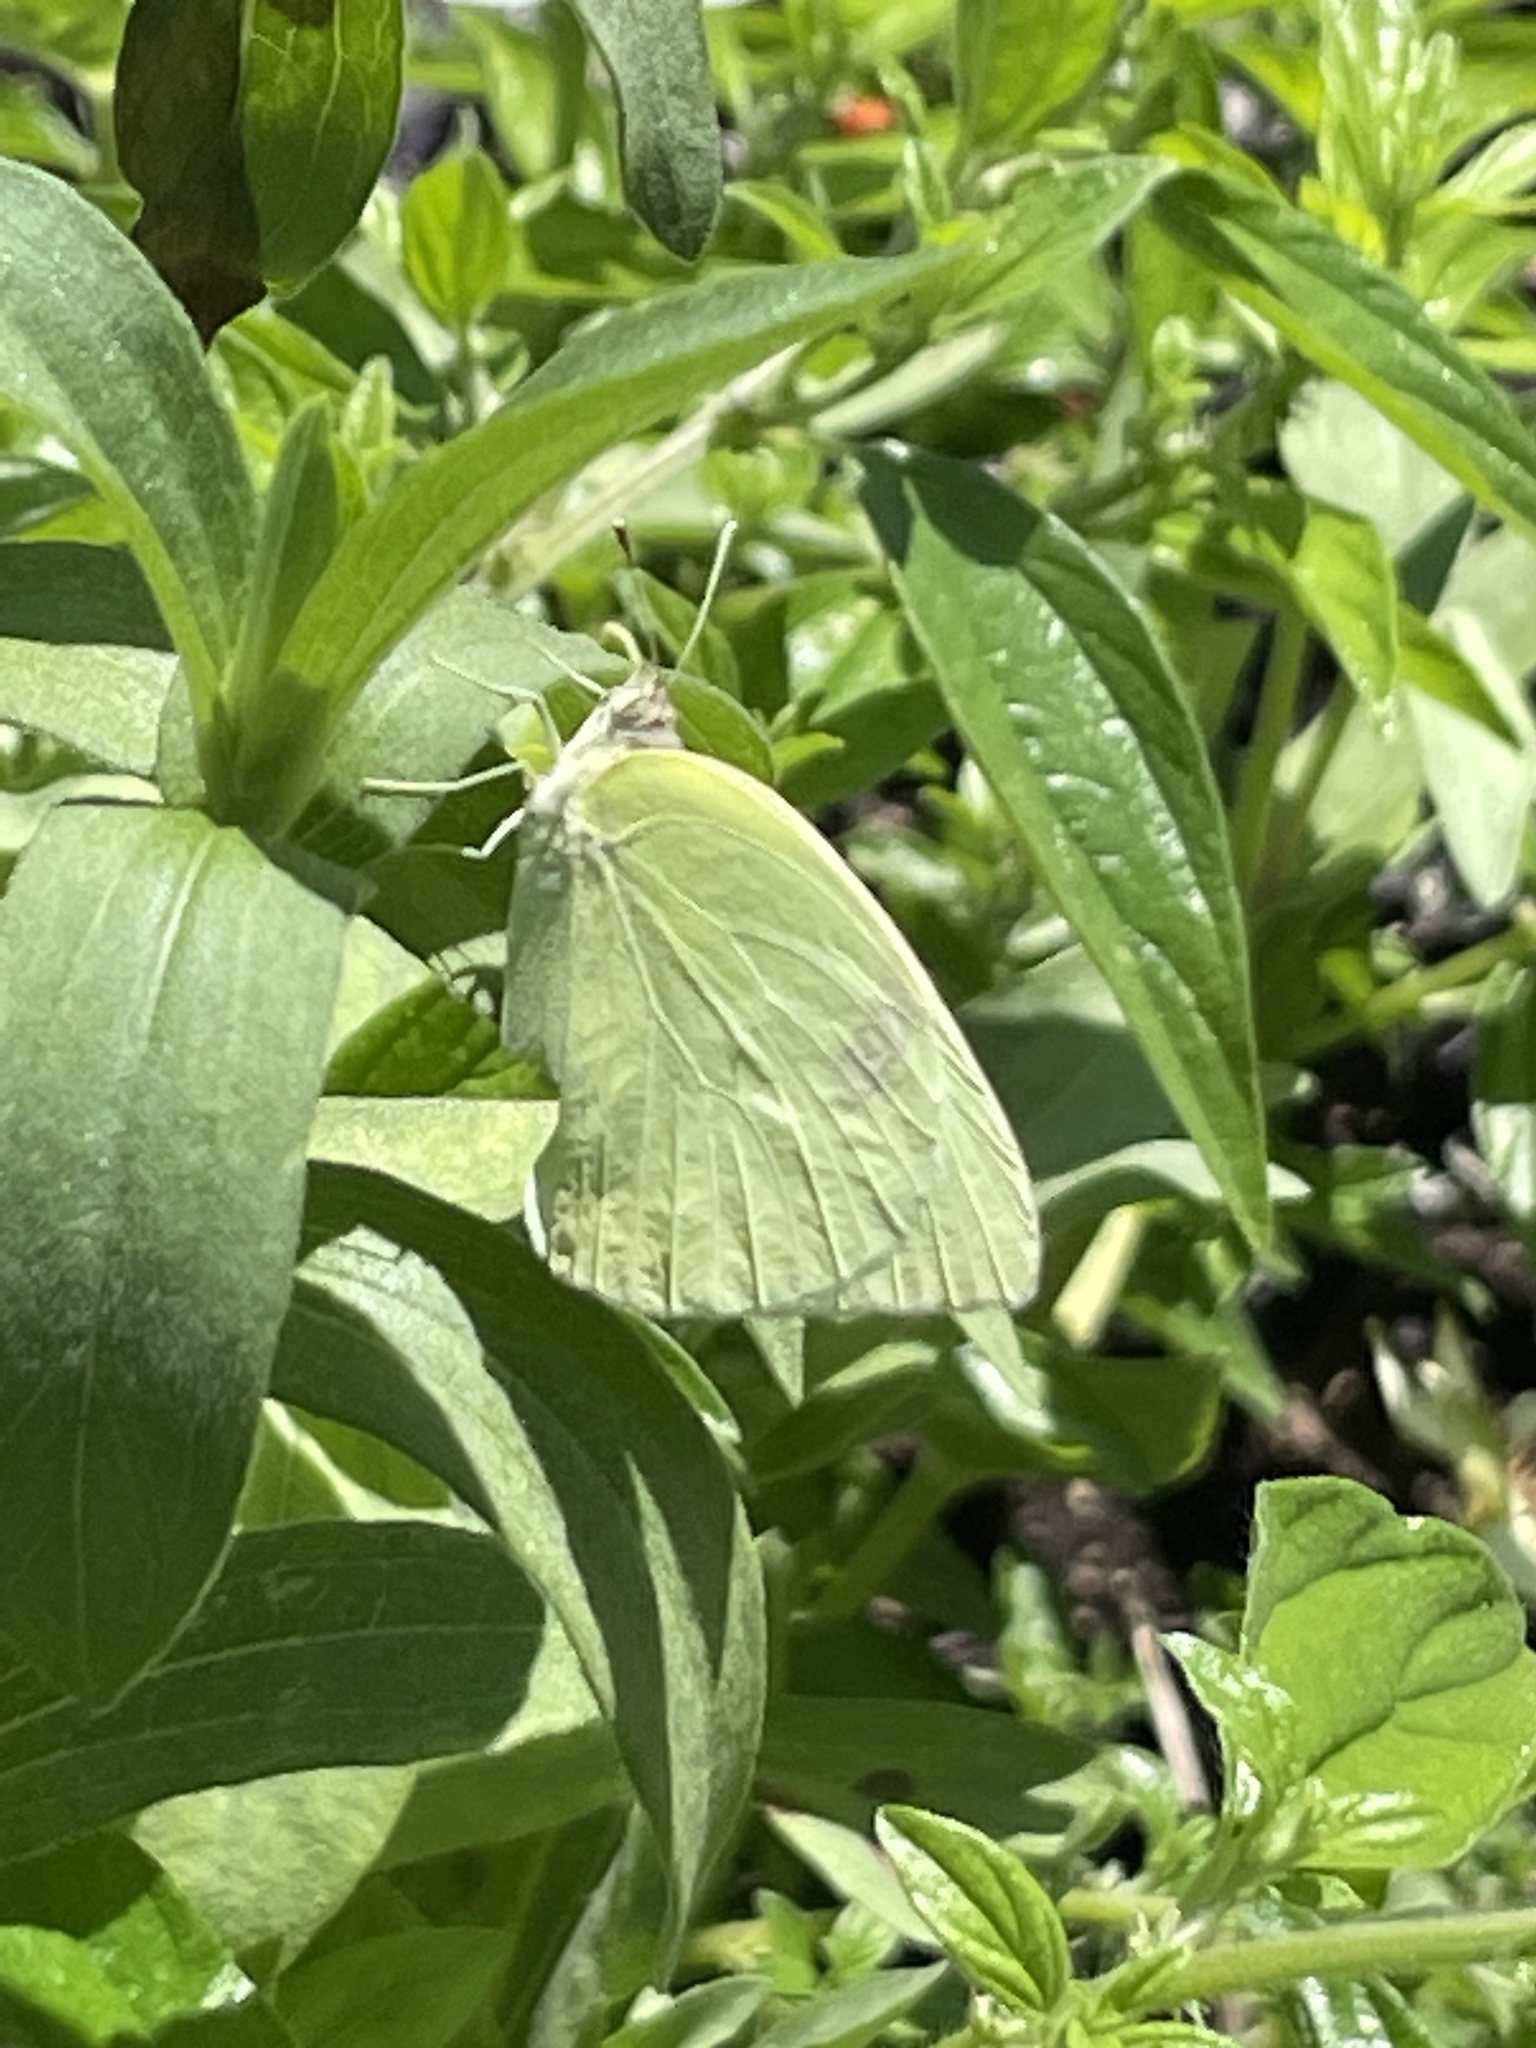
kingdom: Animalia
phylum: Arthropoda
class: Insecta
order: Lepidoptera
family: Pieridae
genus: Kricogonia
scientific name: Kricogonia lyside
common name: Guayacan sulphur,
